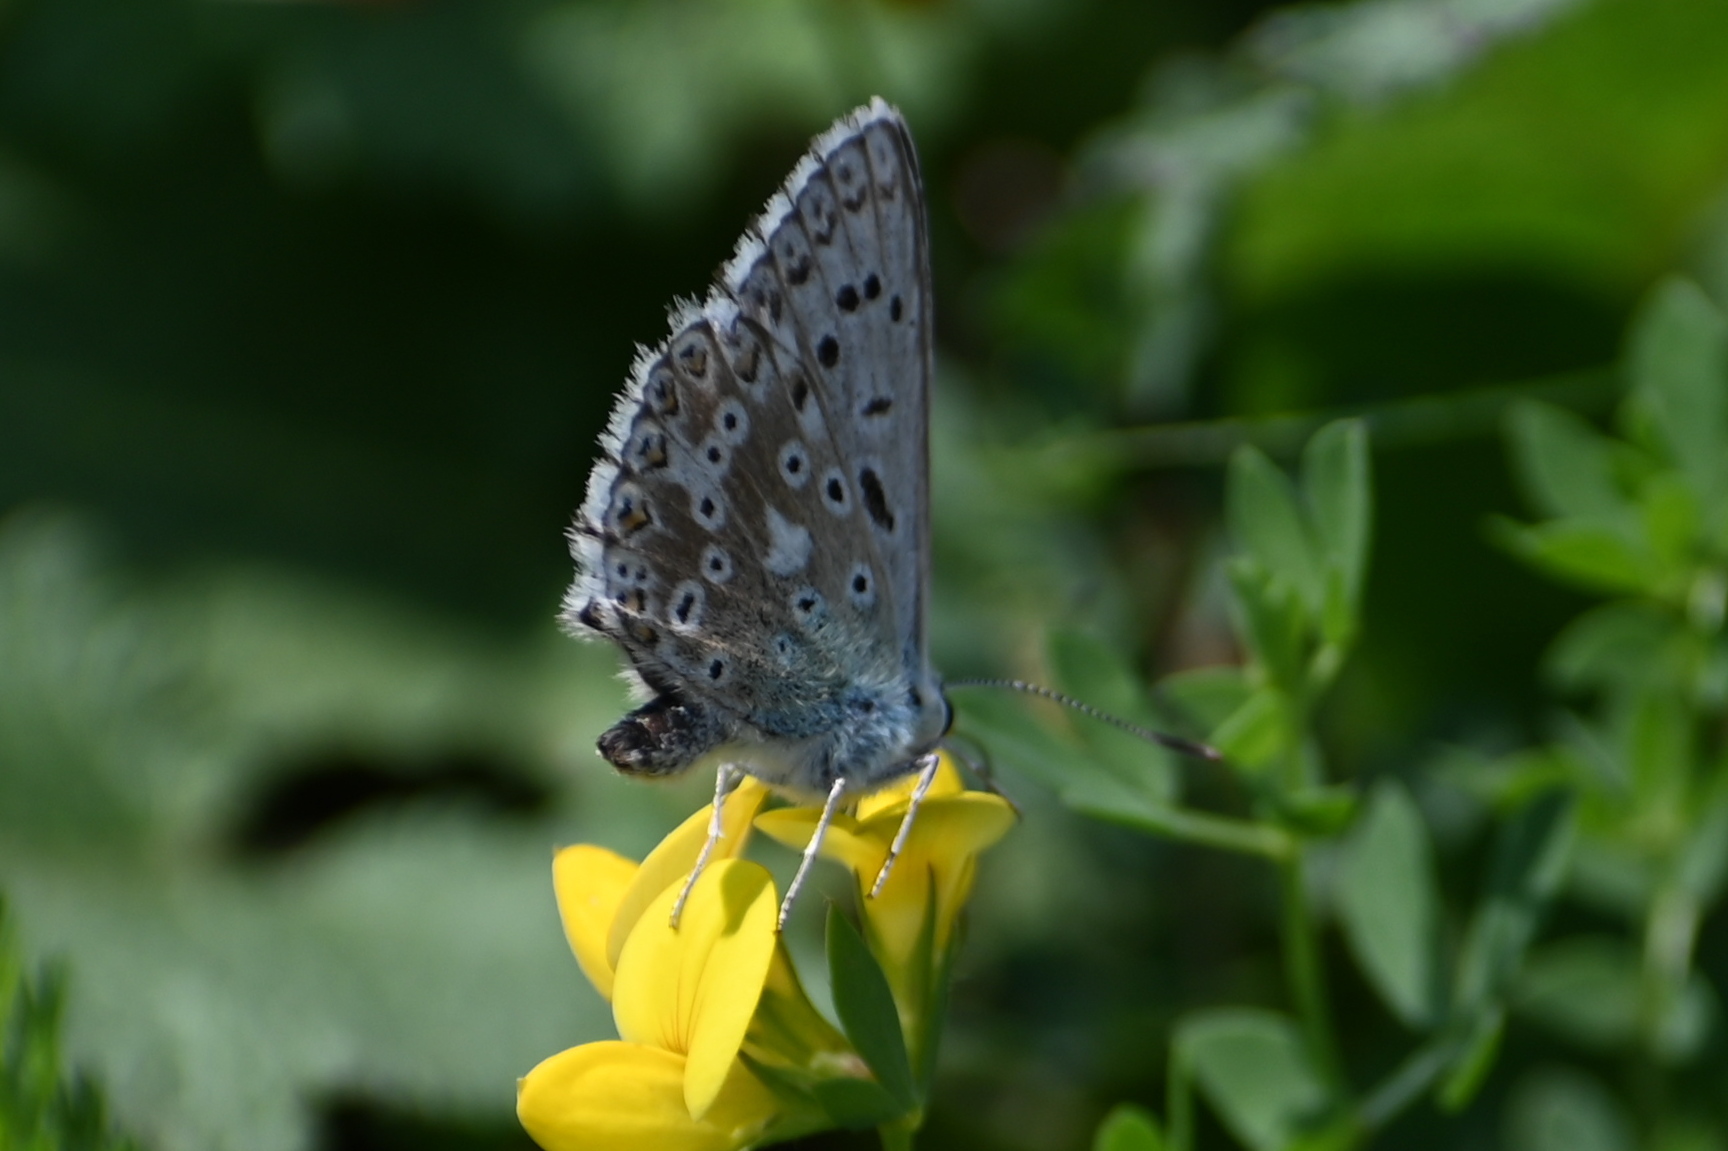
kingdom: Animalia
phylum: Arthropoda
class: Insecta
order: Lepidoptera
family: Lycaenidae
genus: Lysandra
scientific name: Lysandra coridon
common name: Chalkhill blue
